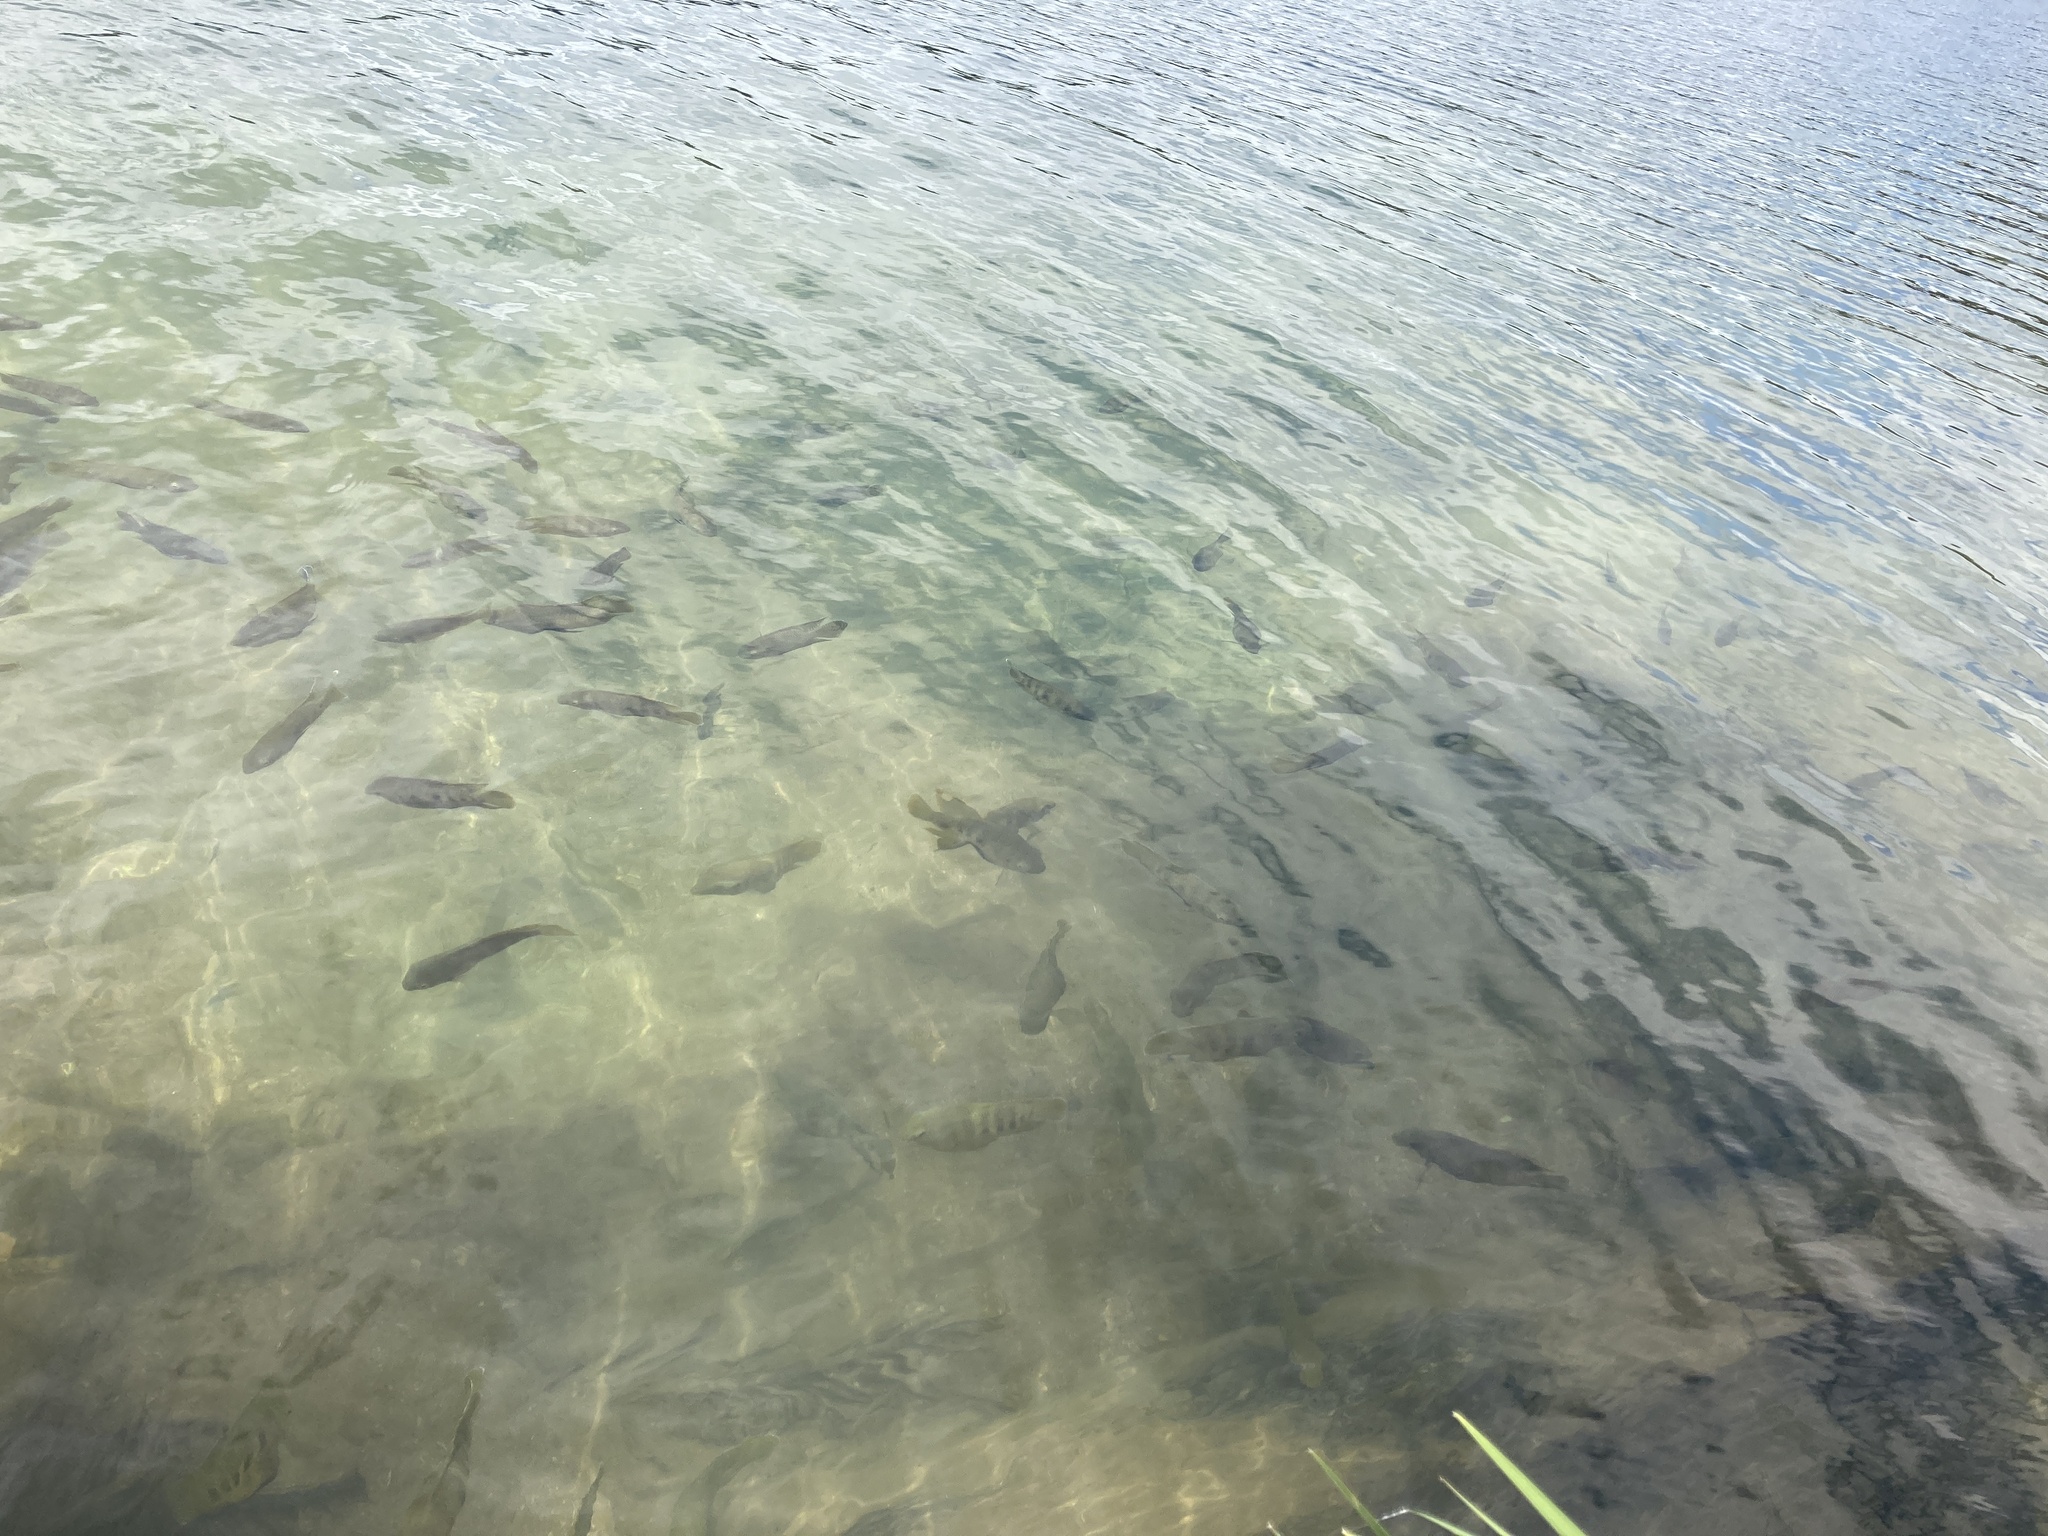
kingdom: Animalia
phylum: Chordata
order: Perciformes
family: Cichlidae
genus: Pelmatolapia
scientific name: Pelmatolapia mariae
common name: Spotted tilapia
